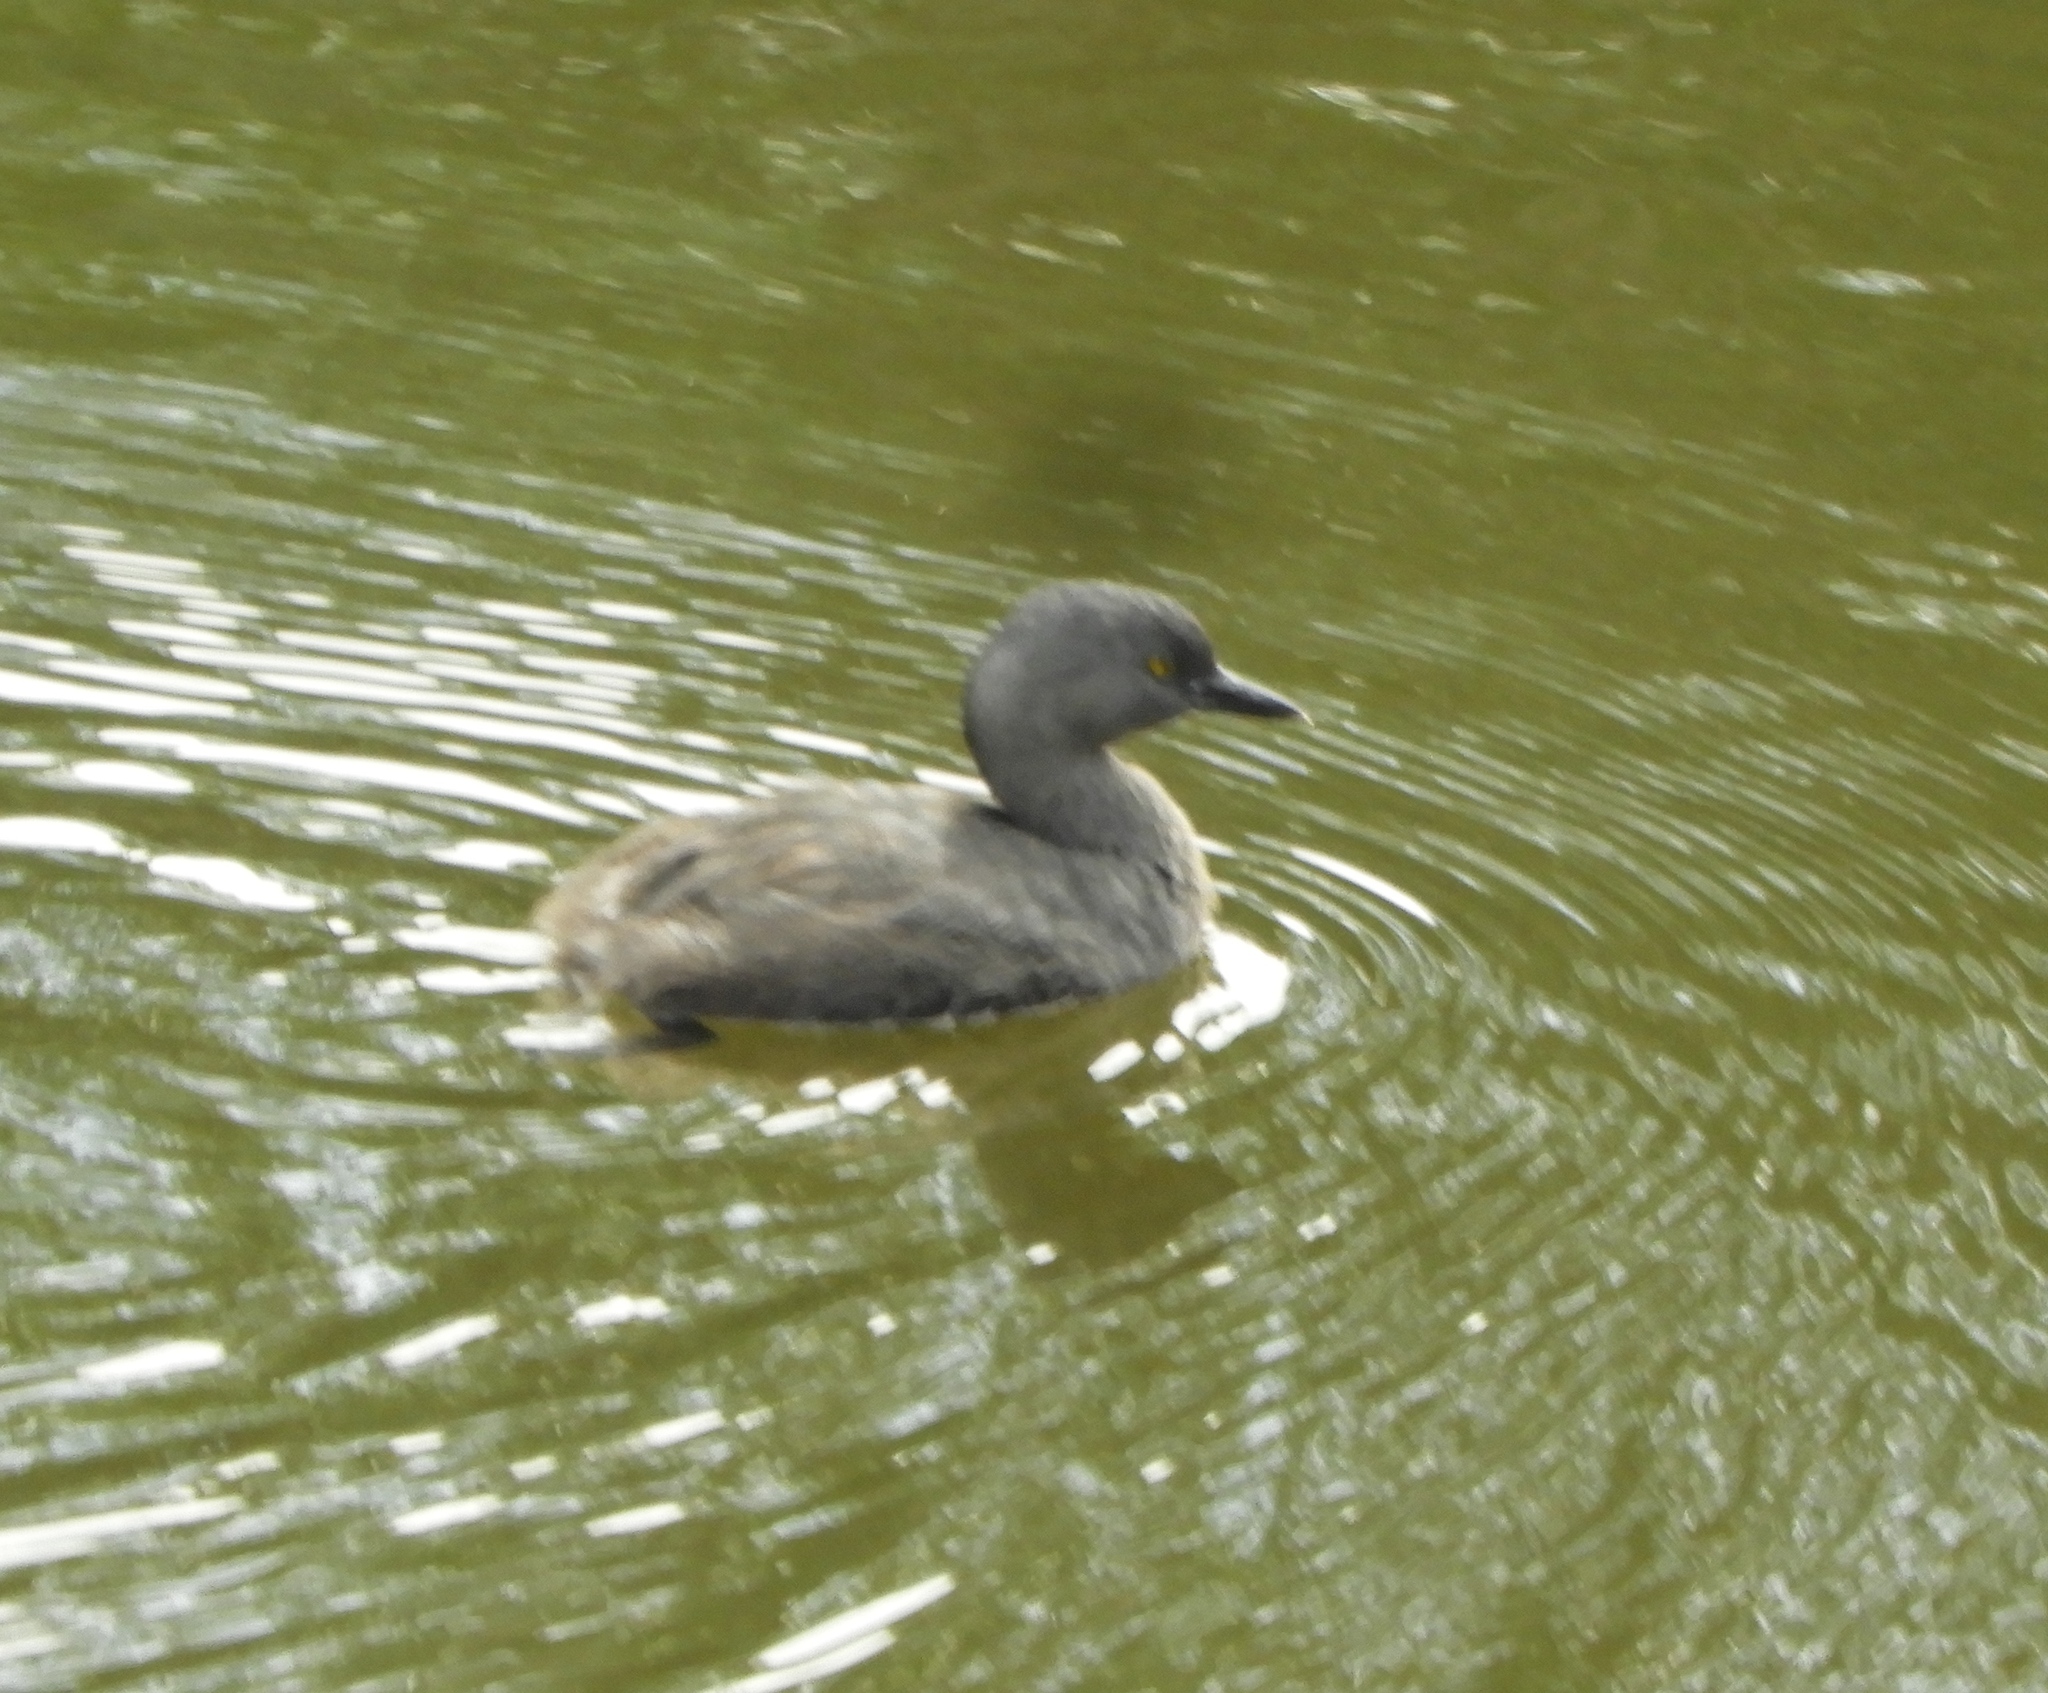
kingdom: Animalia
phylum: Chordata
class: Aves
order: Podicipediformes
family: Podicipedidae
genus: Tachybaptus
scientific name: Tachybaptus dominicus
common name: Least grebe
